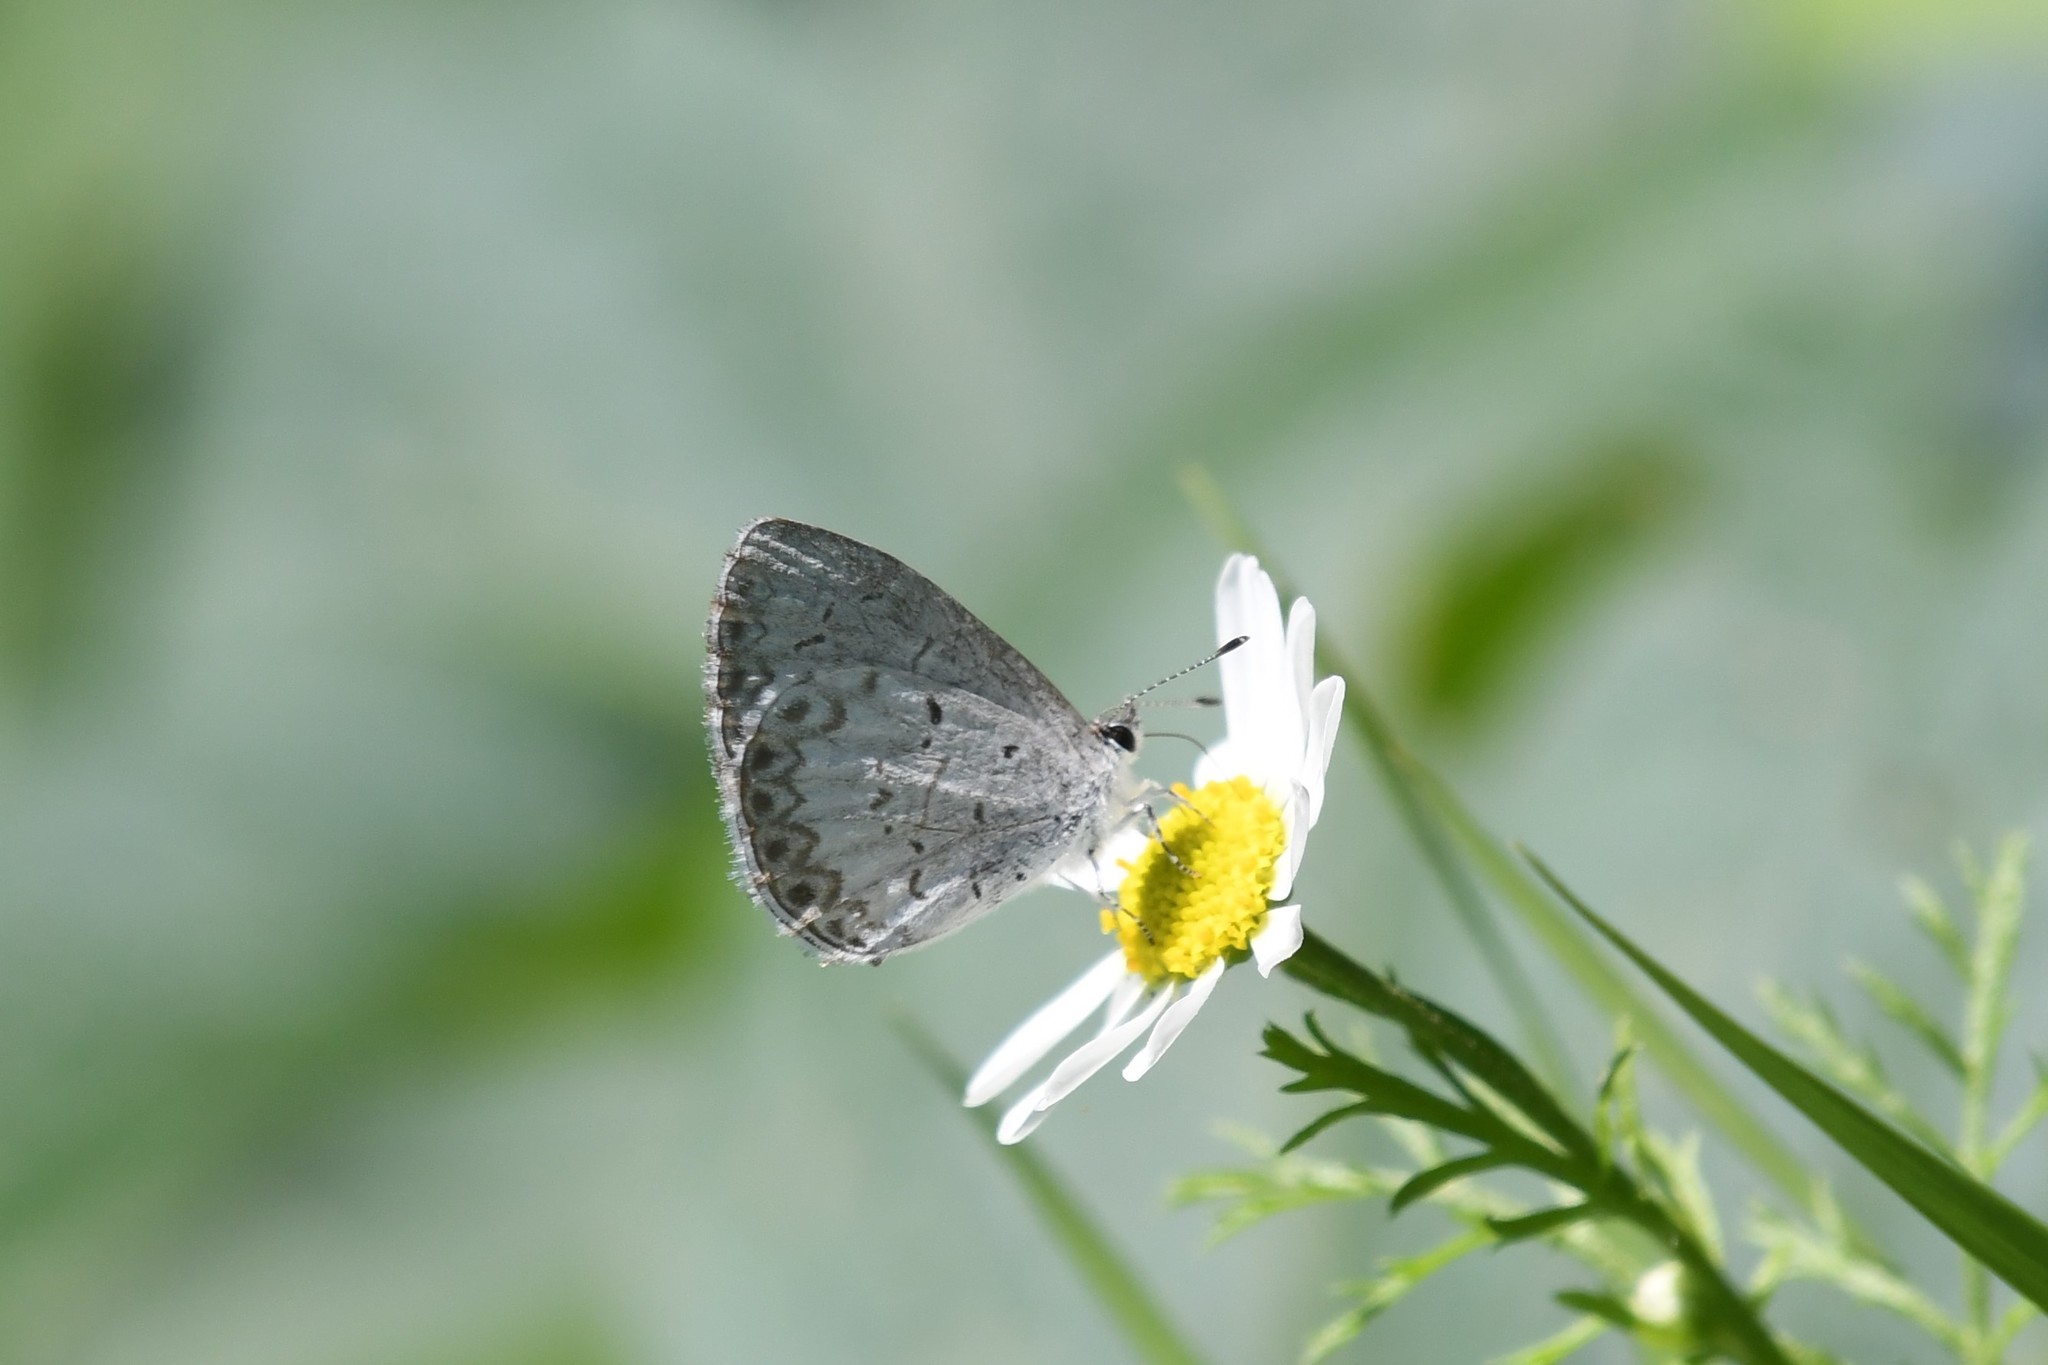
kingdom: Animalia
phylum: Arthropoda
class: Insecta
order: Lepidoptera
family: Lycaenidae
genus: Celastrina
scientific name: Celastrina lucia
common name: Lucia azure
